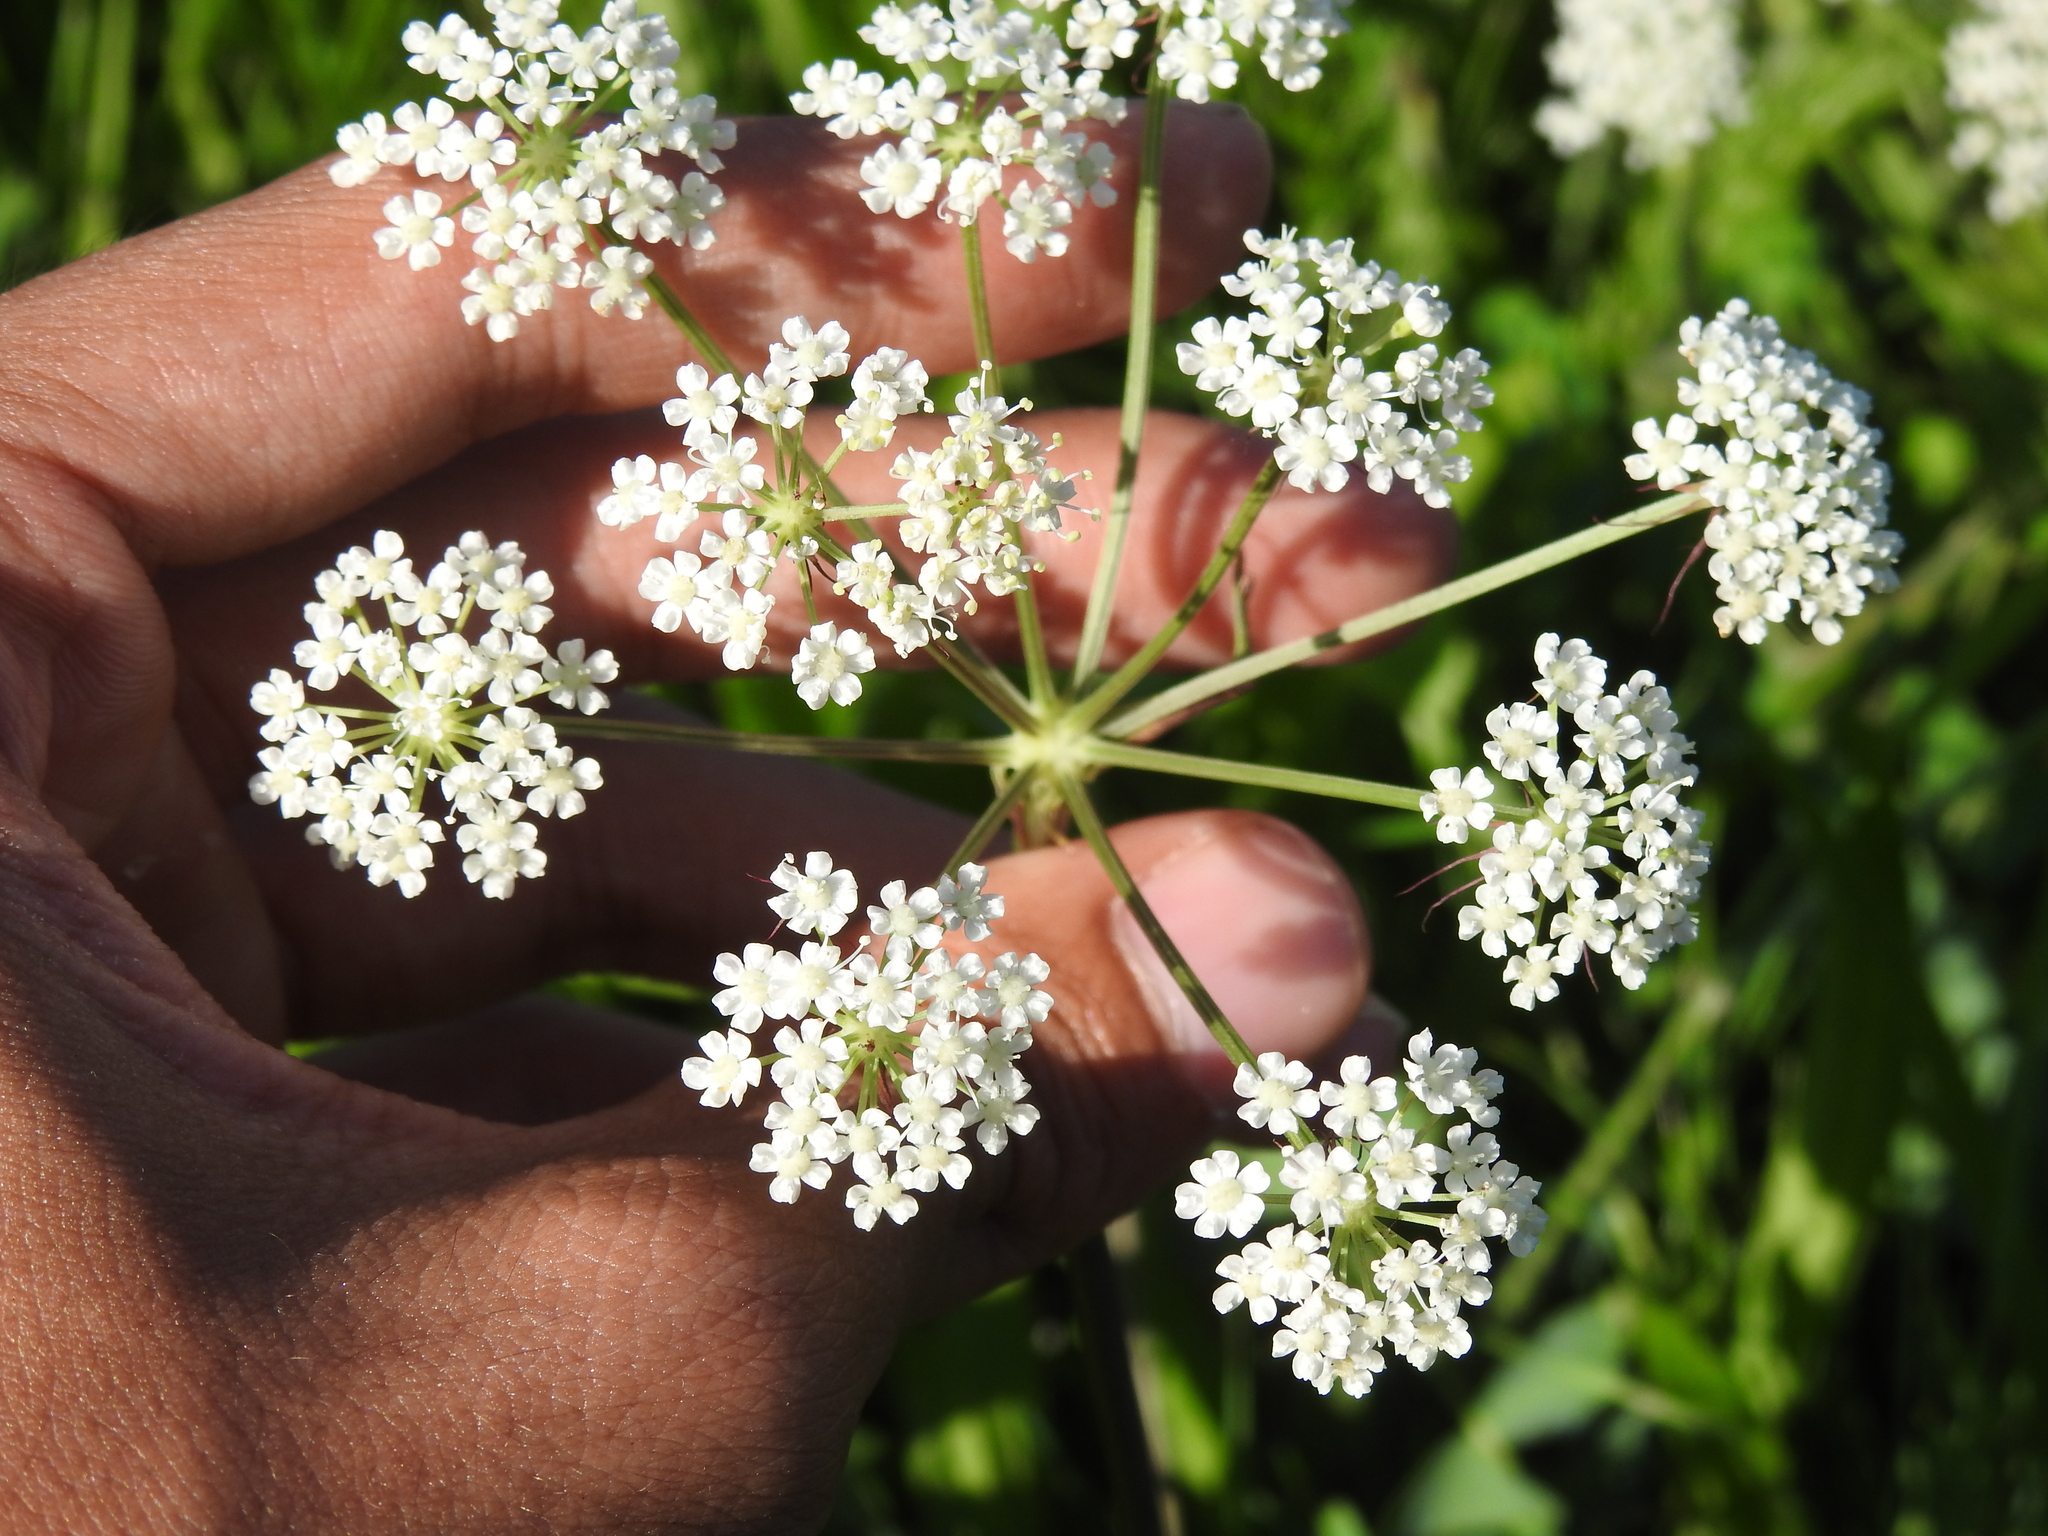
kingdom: Plantae
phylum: Tracheophyta
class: Magnoliopsida
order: Apiales
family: Apiaceae
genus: Cervaria
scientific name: Cervaria rivini
